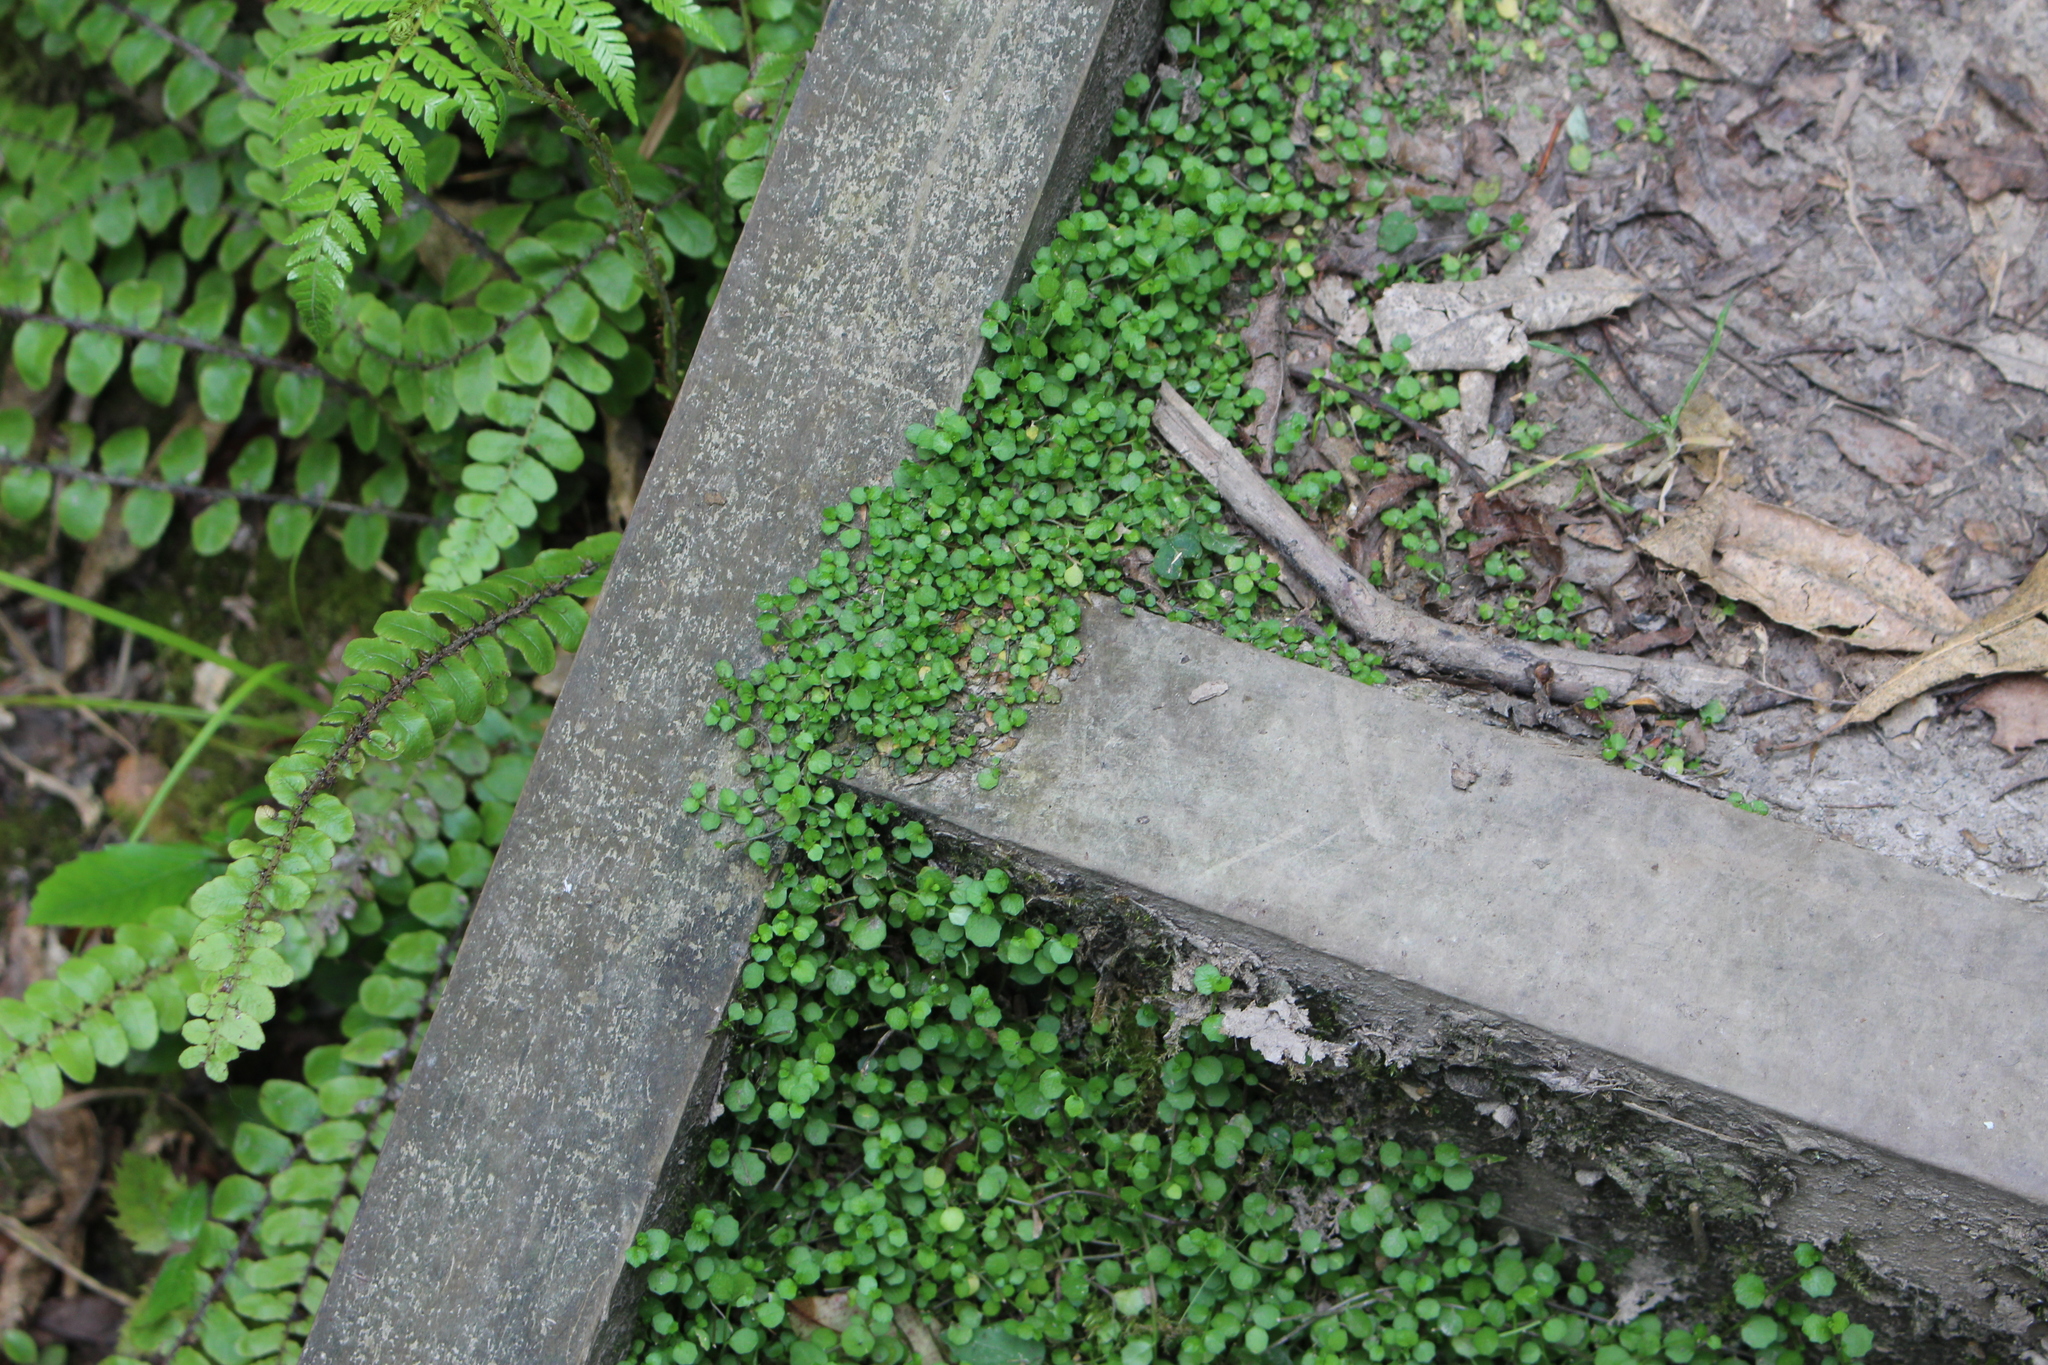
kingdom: Plantae
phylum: Tracheophyta
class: Magnoliopsida
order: Asterales
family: Campanulaceae
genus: Lobelia
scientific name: Lobelia angulata
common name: Lawn lobelia
